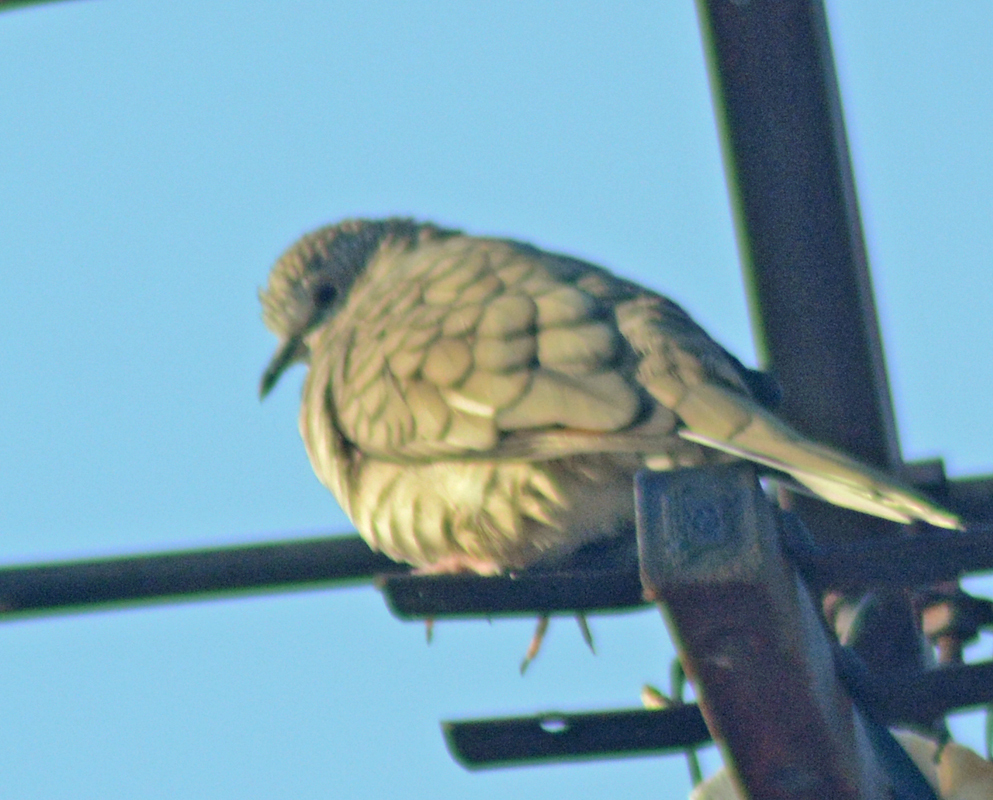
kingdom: Animalia
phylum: Chordata
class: Aves
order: Columbiformes
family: Columbidae
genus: Columbina
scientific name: Columbina inca
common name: Inca dove
